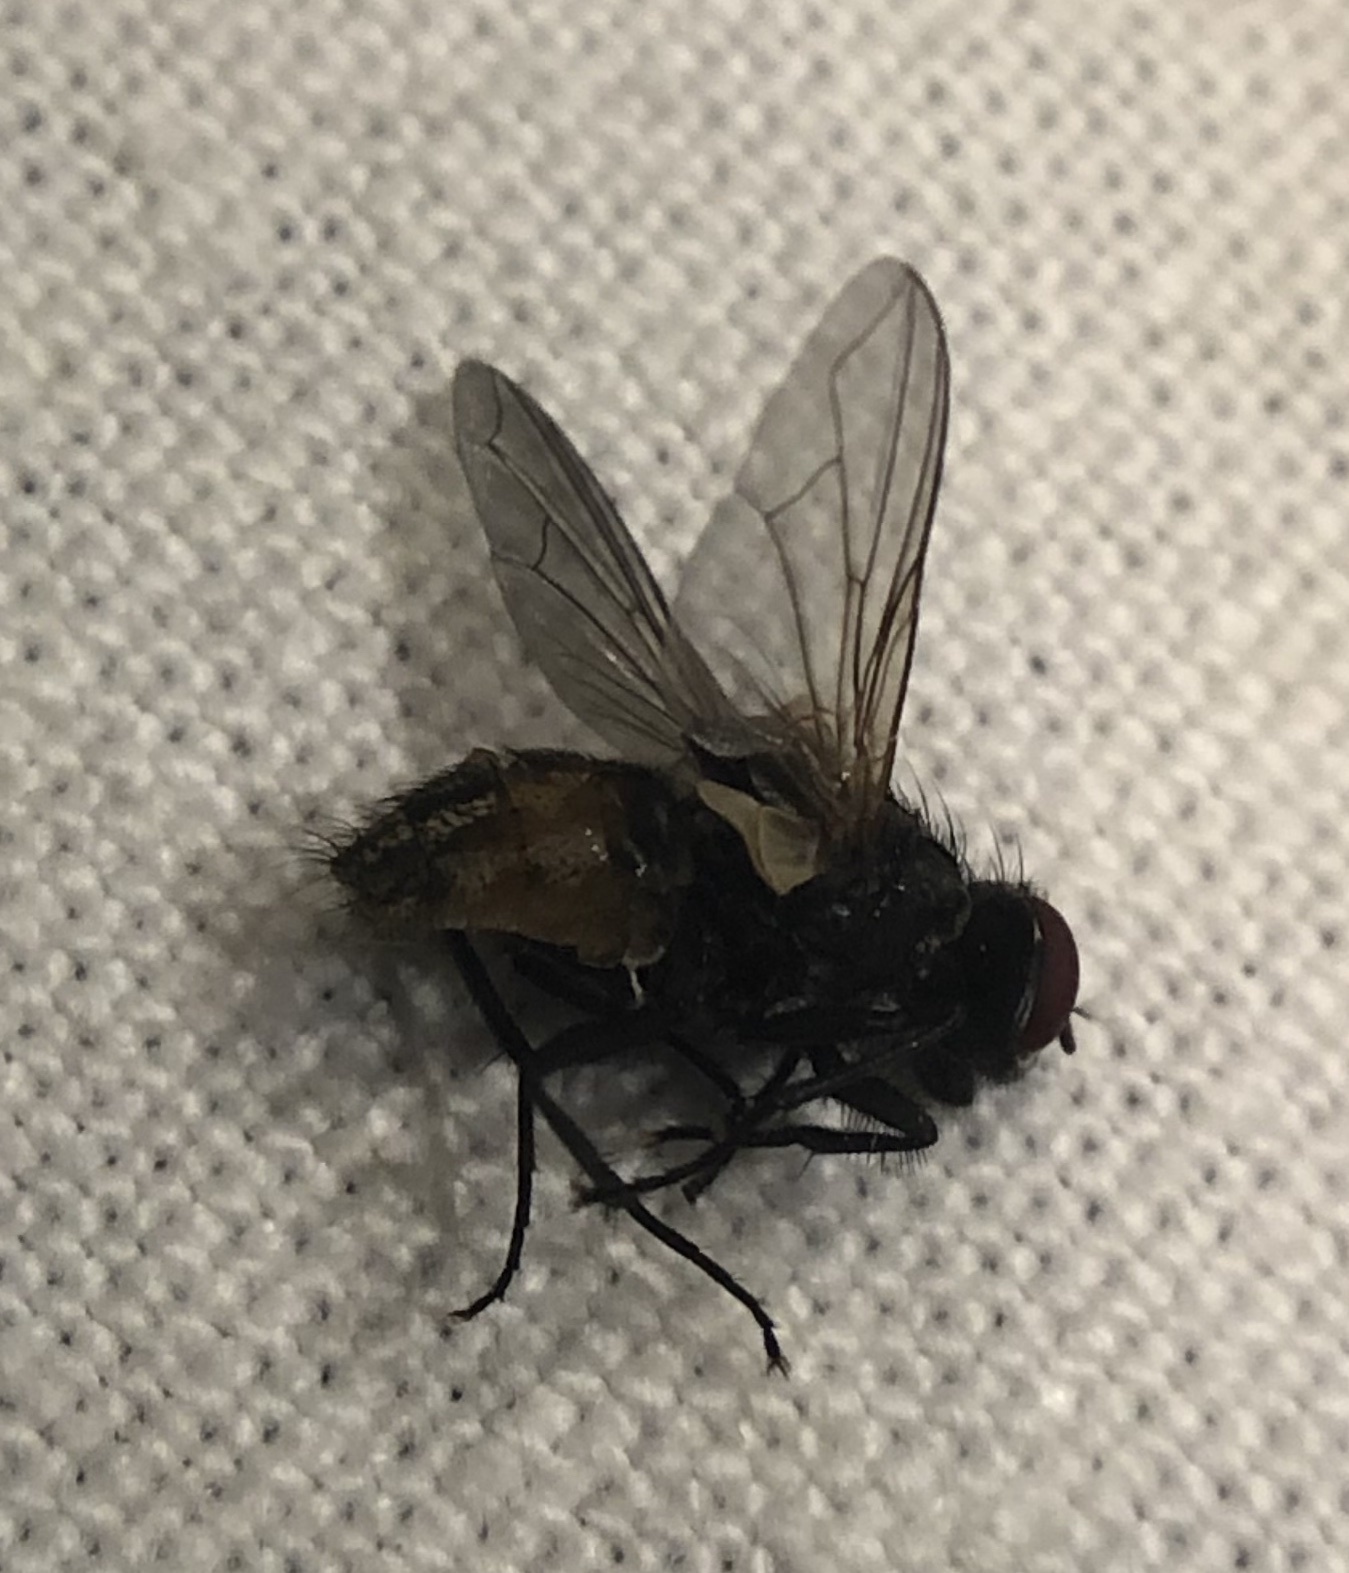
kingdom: Animalia
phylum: Arthropoda
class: Insecta
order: Diptera
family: Muscidae
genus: Musca
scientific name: Musca domestica
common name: House fly
